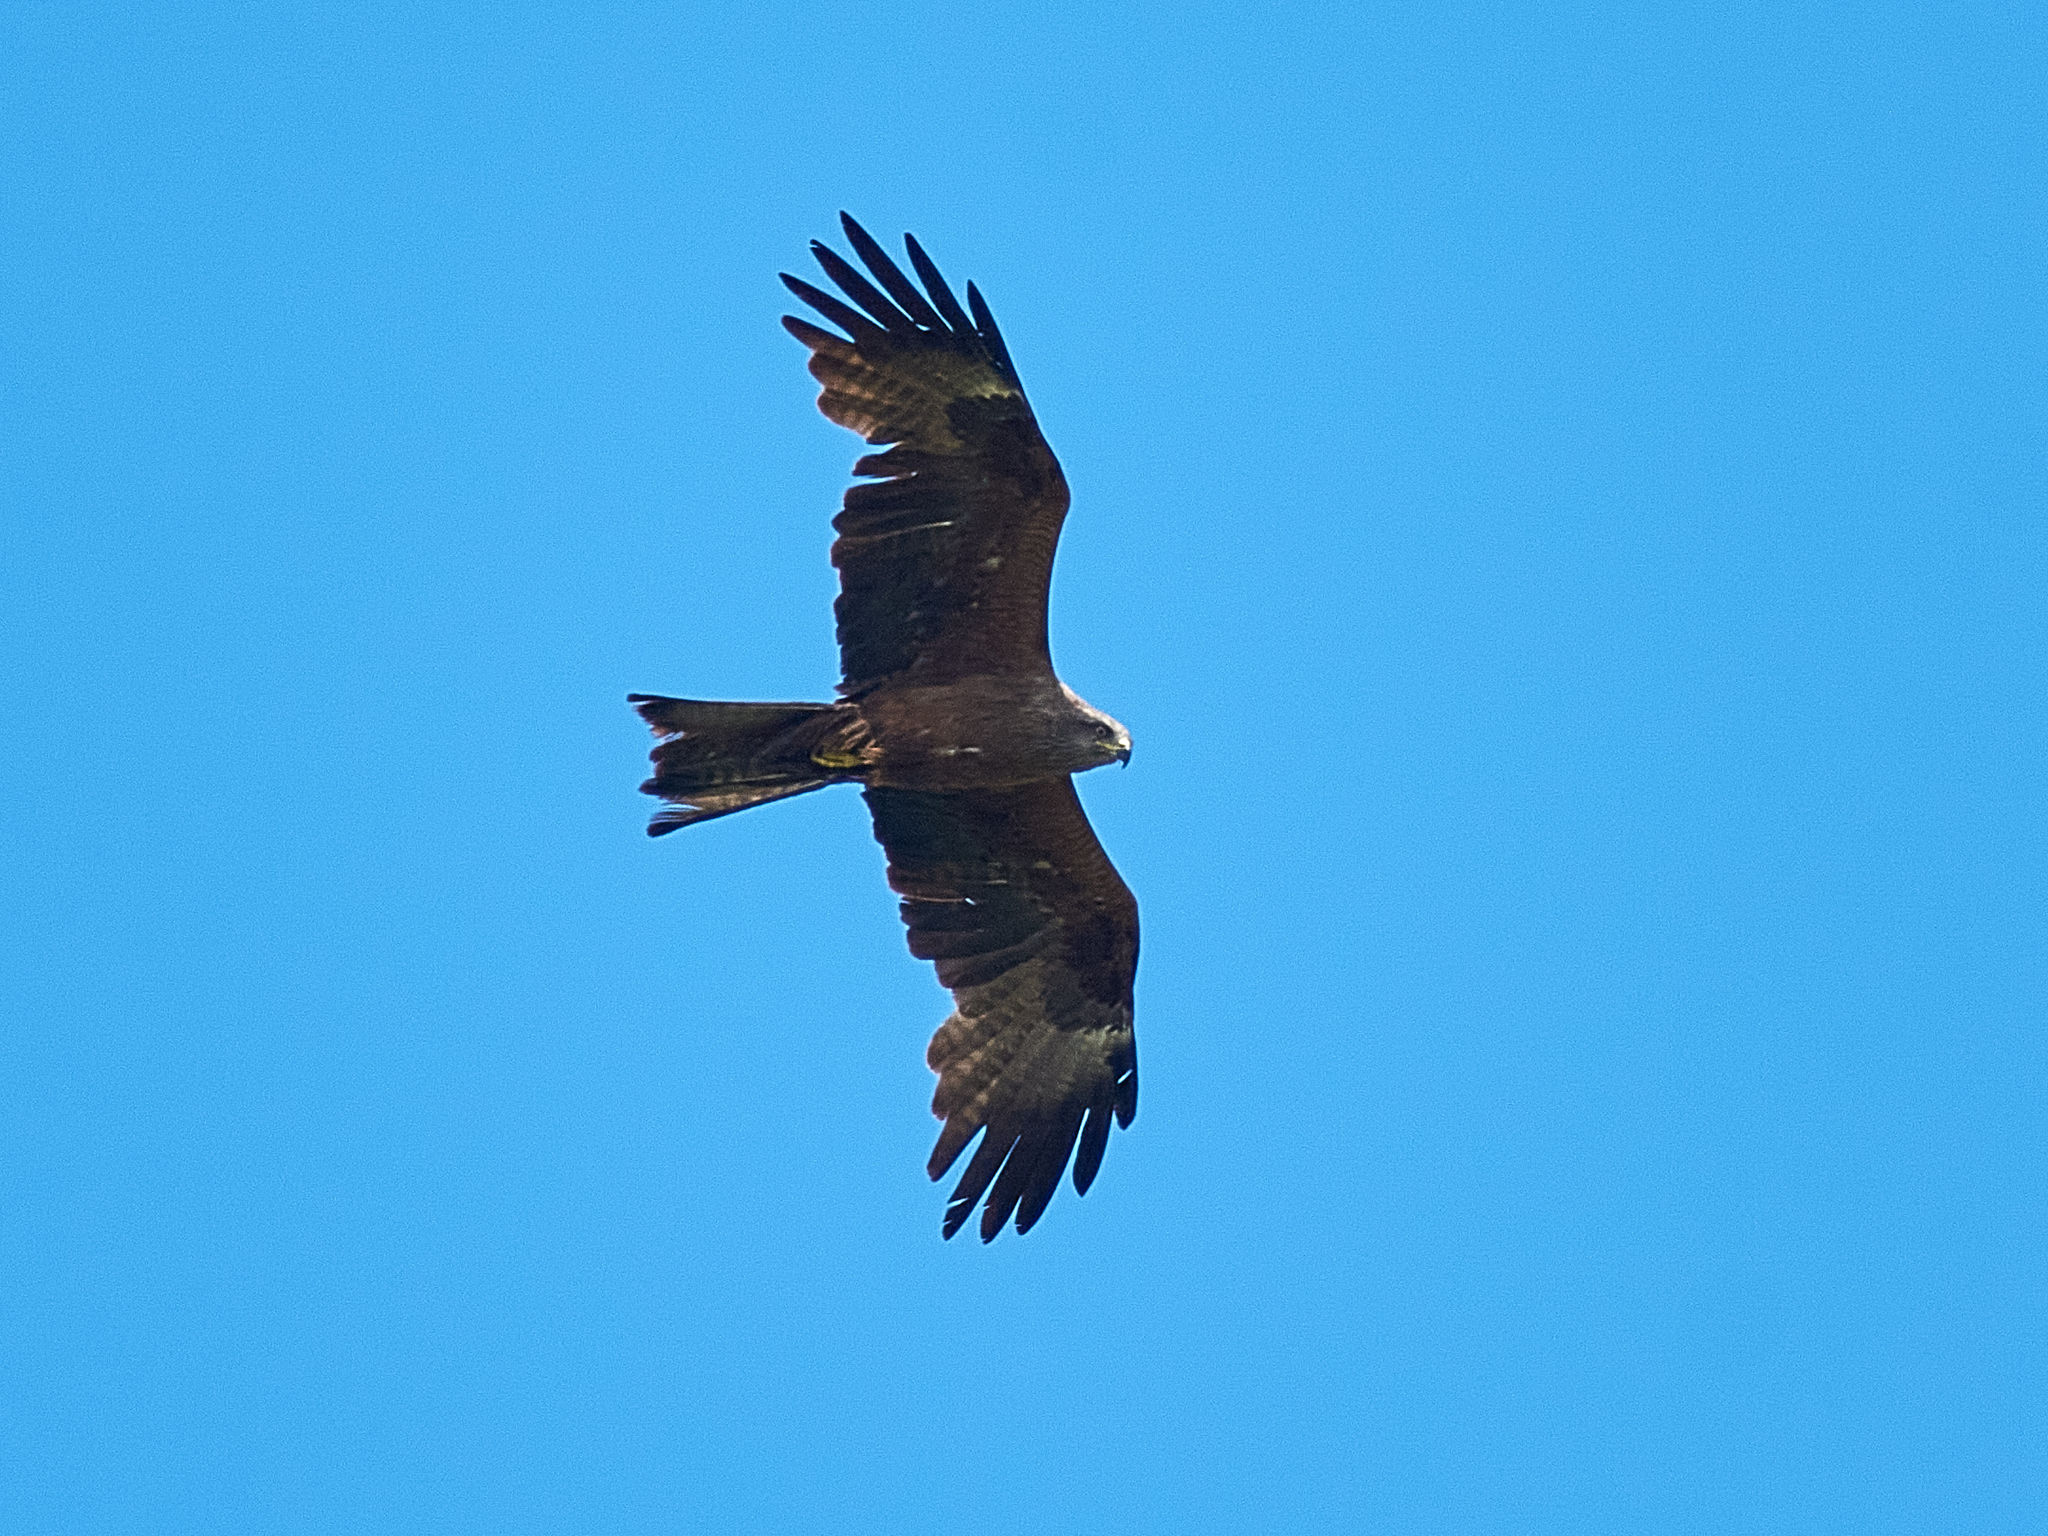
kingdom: Animalia
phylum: Chordata
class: Aves
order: Accipitriformes
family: Accipitridae
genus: Milvus
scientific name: Milvus migrans
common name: Black kite
